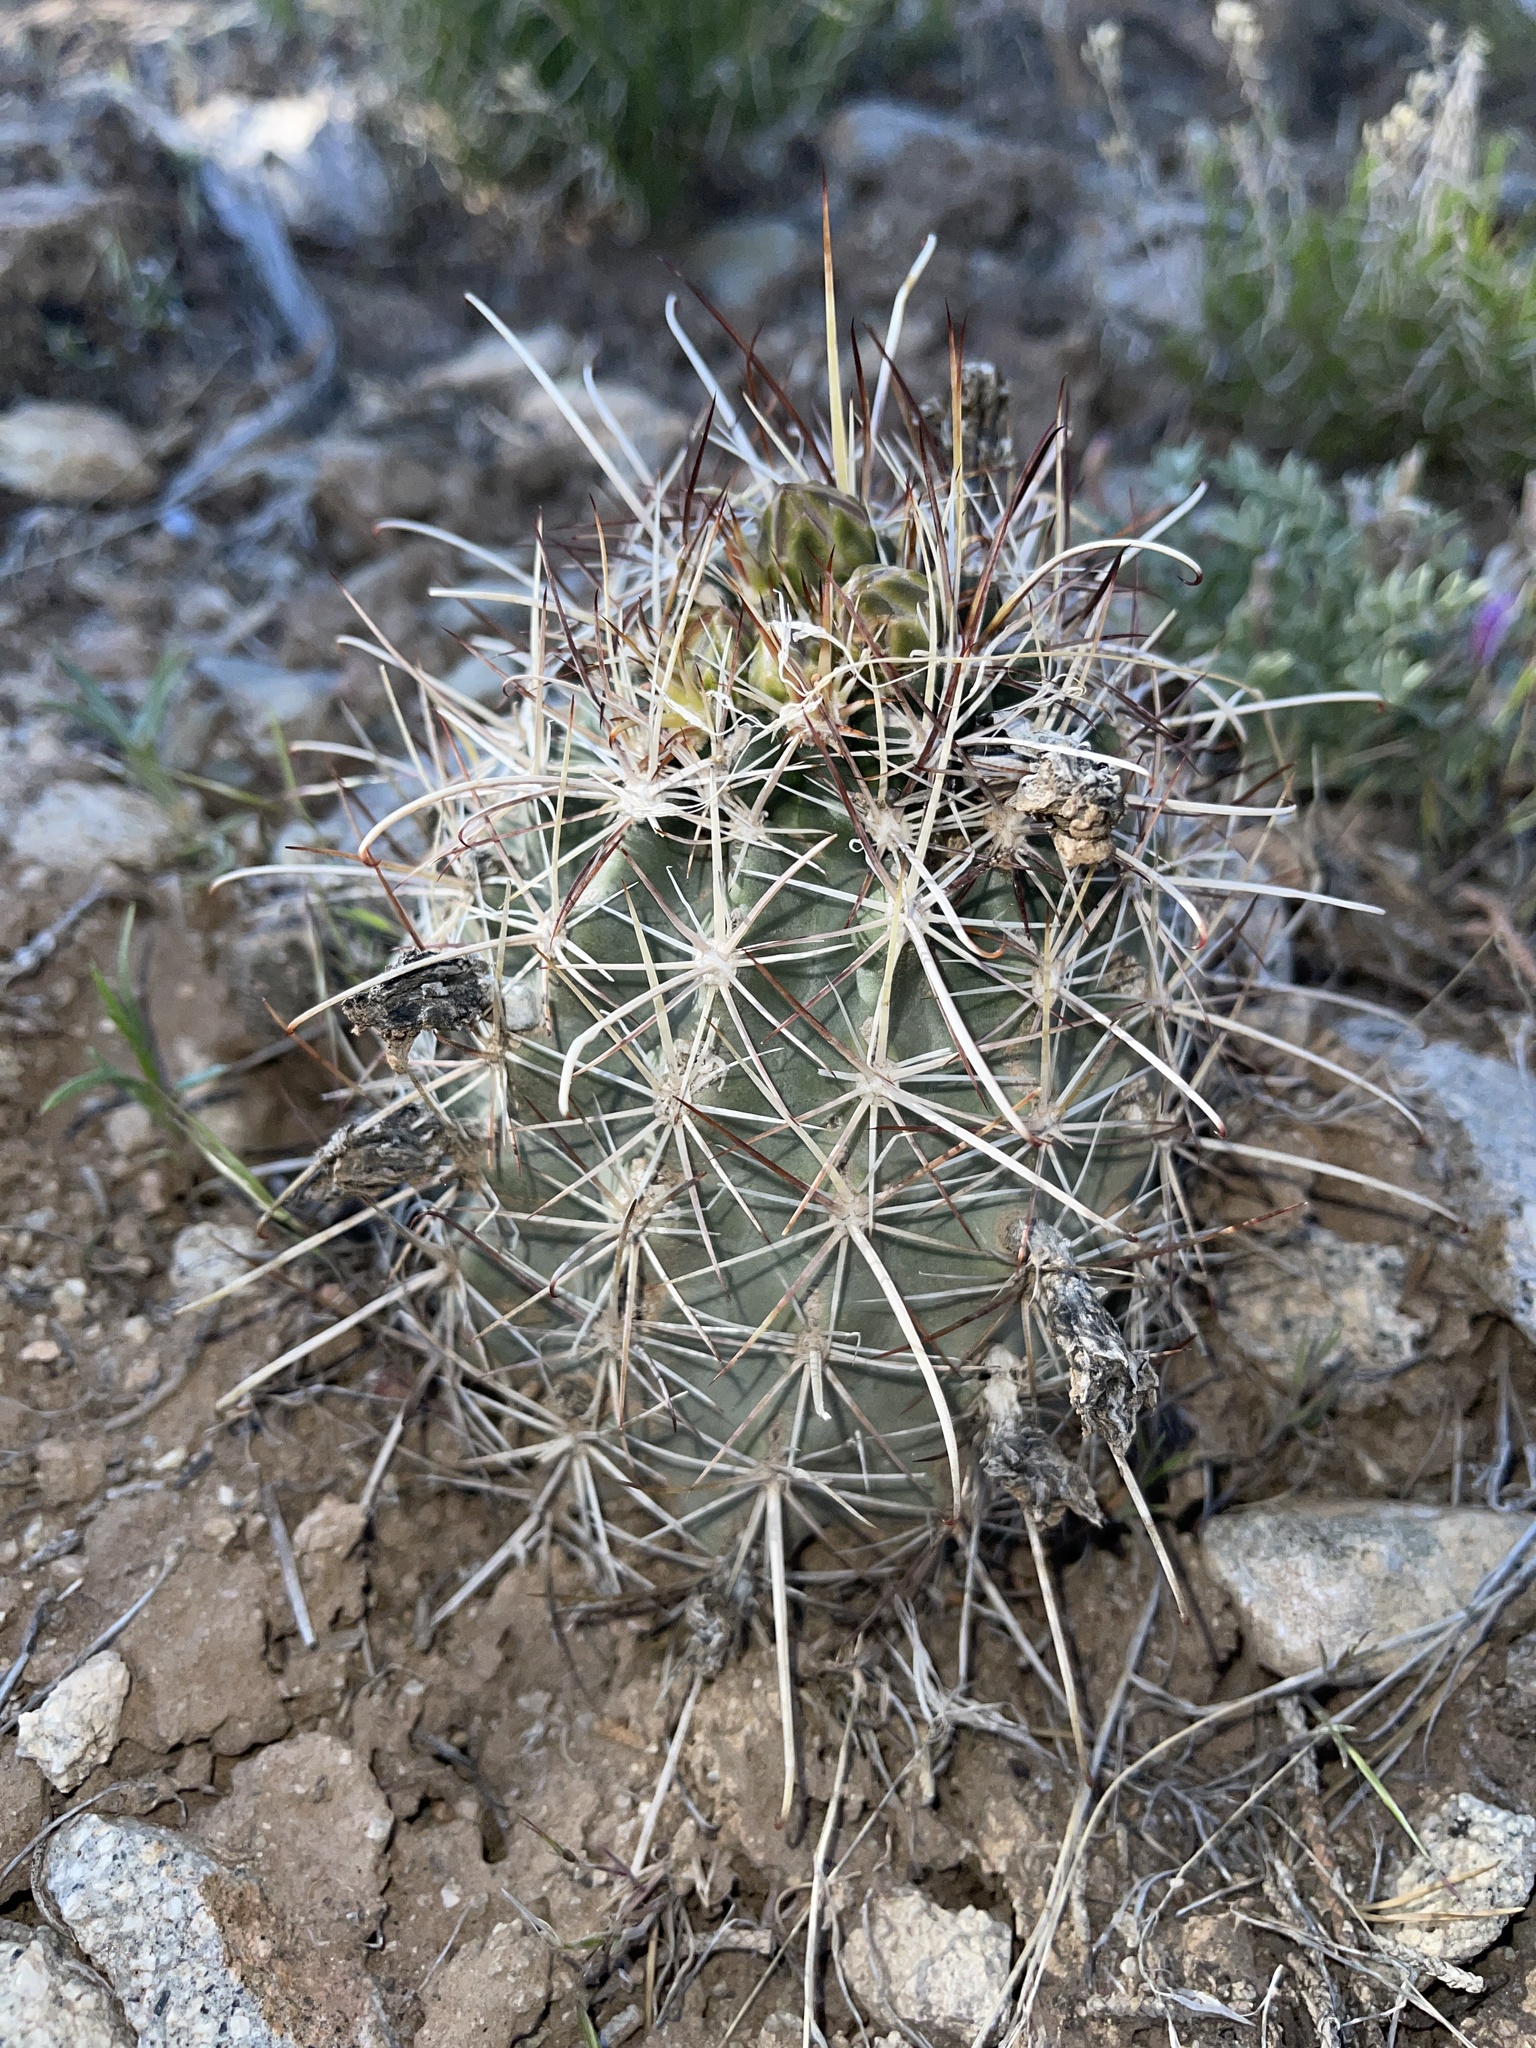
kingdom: Plantae
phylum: Tracheophyta
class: Magnoliopsida
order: Caryophyllales
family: Cactaceae
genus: Sclerocactus
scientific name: Sclerocactus parviflorus
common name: Small-flower fishhook cactus
